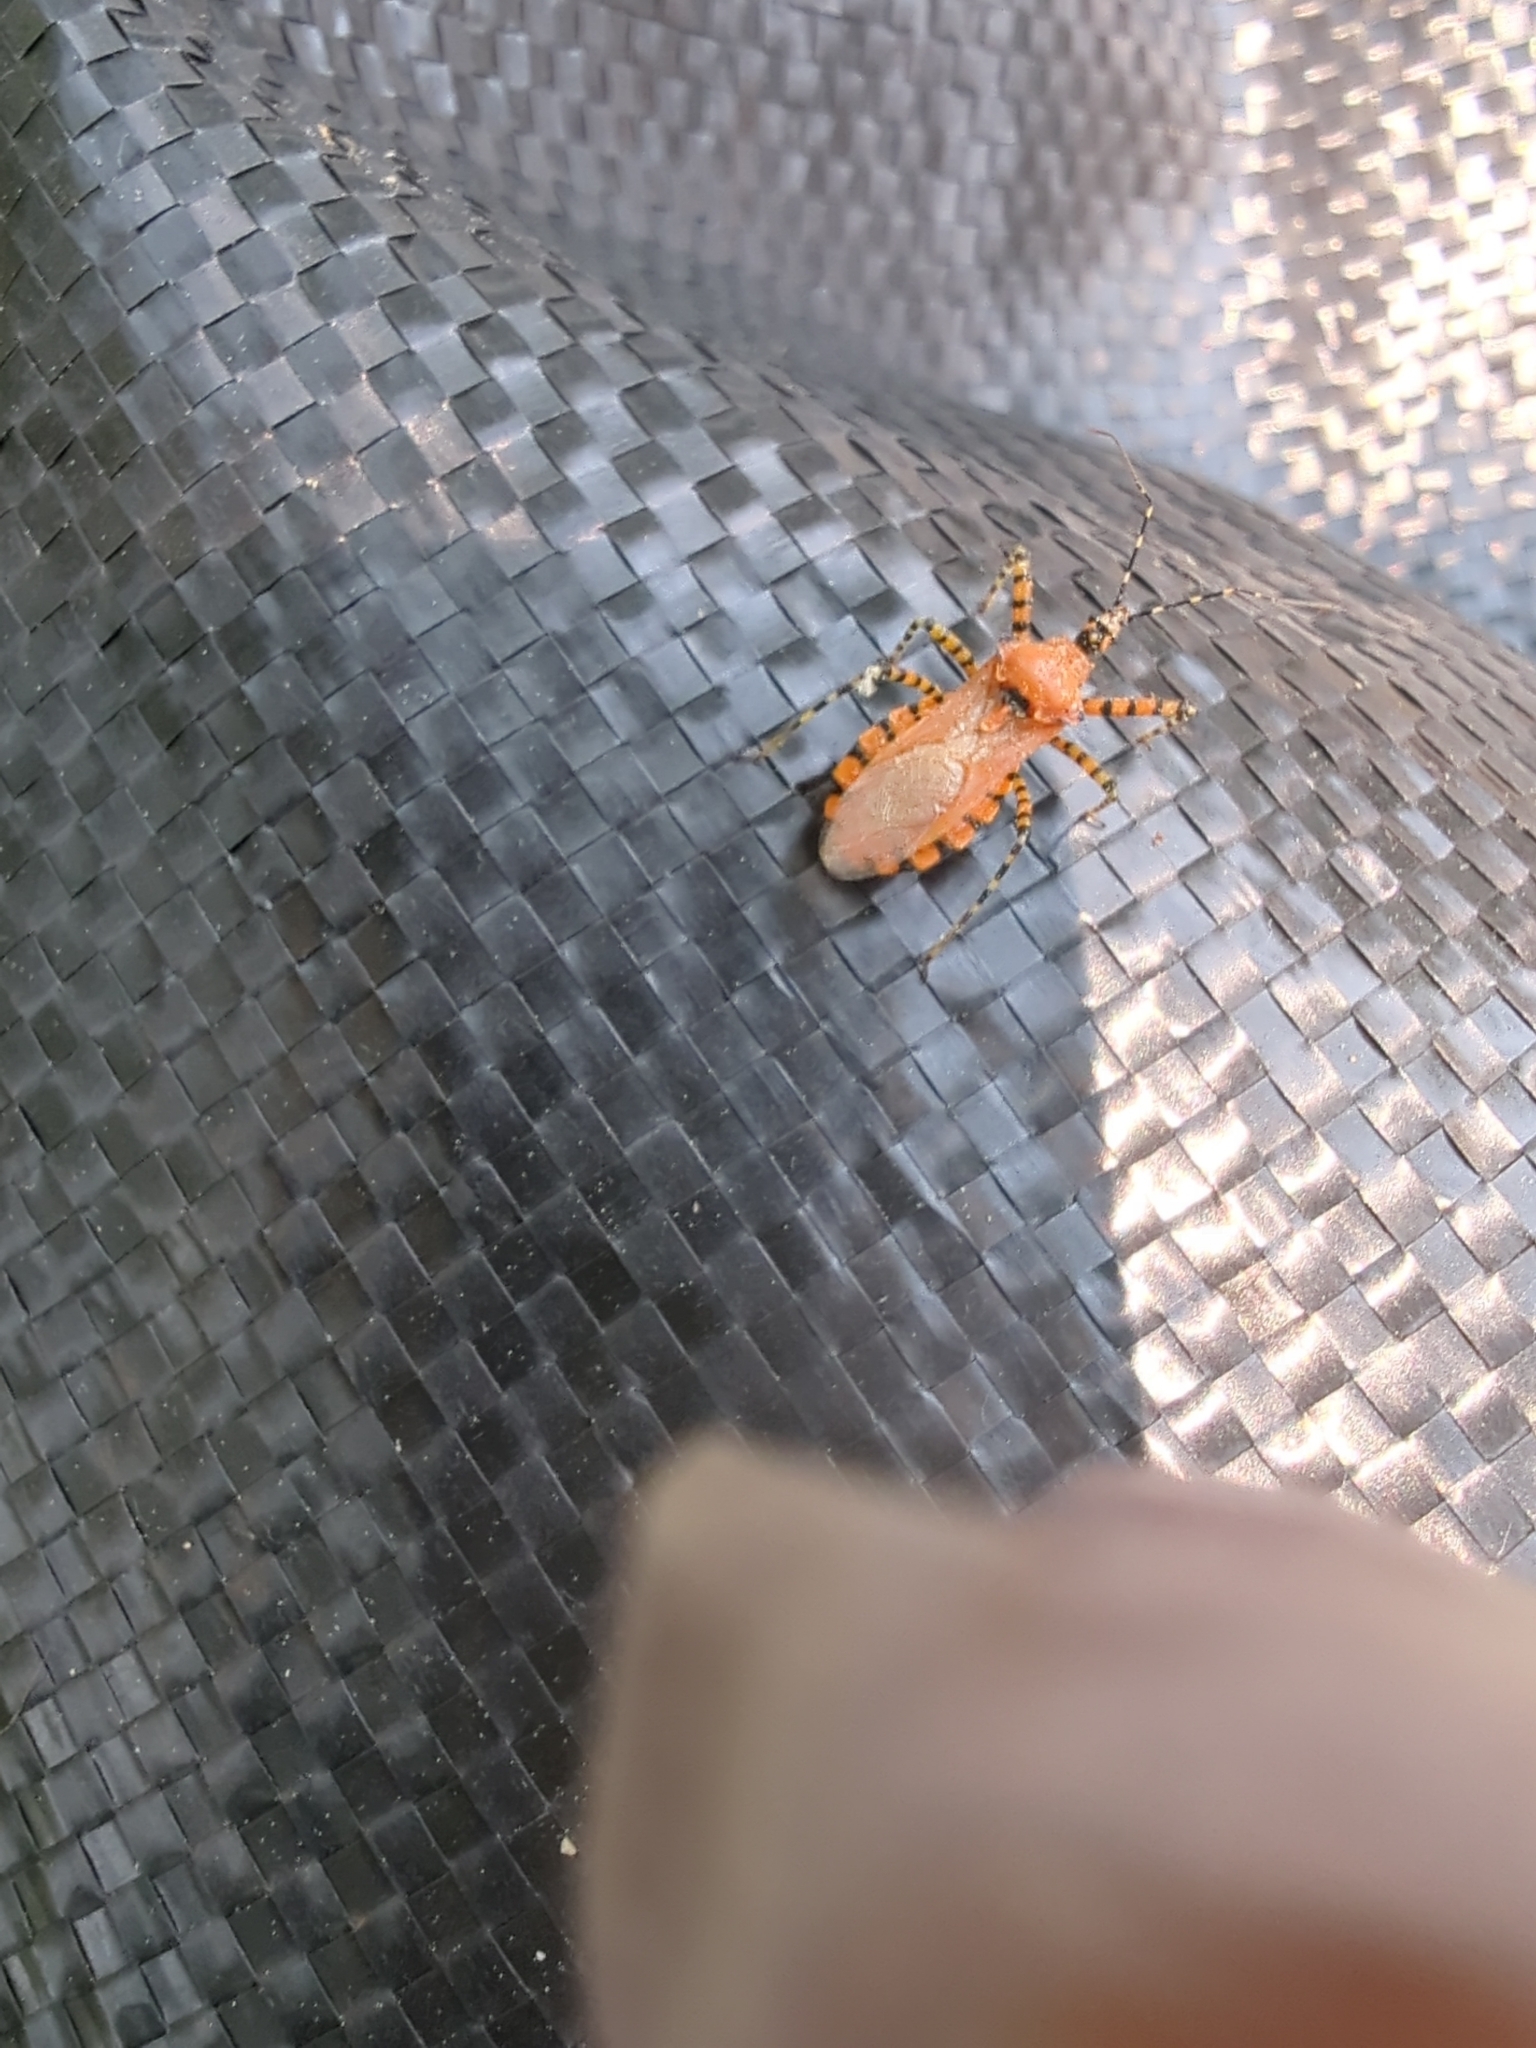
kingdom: Animalia
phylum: Arthropoda
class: Insecta
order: Hemiptera
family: Reduviidae
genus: Pselliopus
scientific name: Pselliopus barberi
